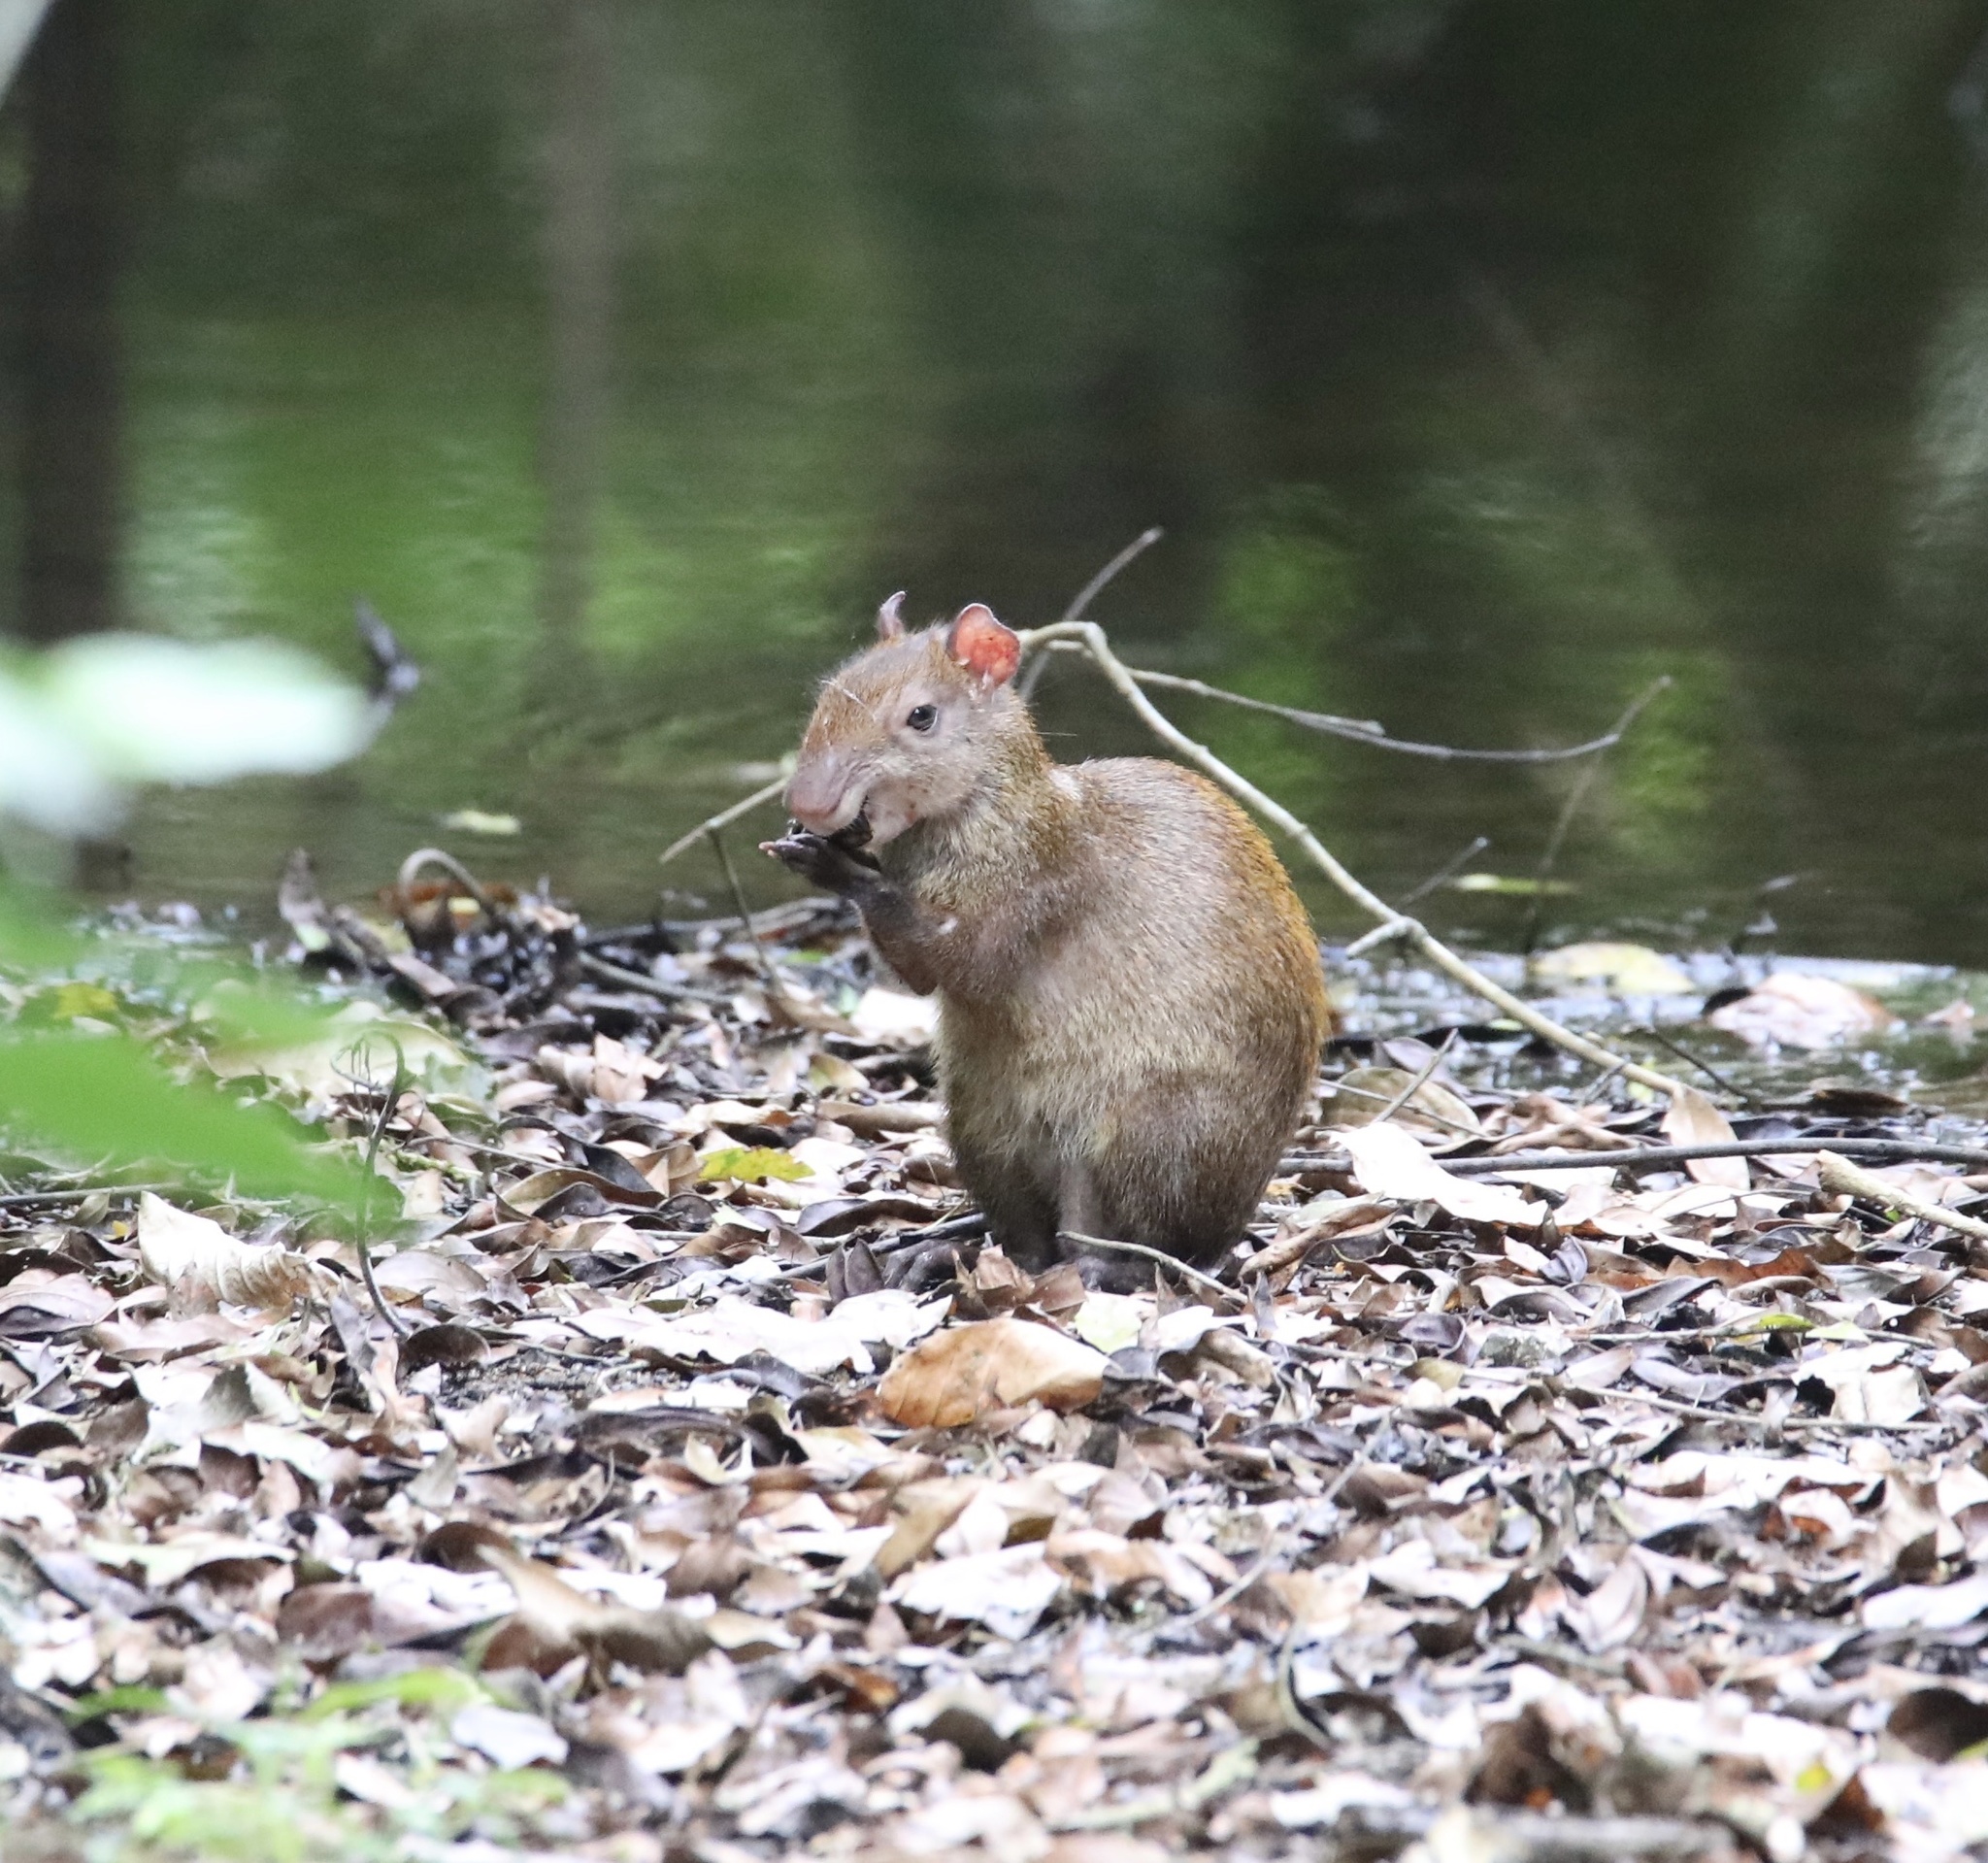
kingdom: Animalia
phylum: Chordata
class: Mammalia
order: Rodentia
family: Dasyproctidae
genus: Dasyprocta
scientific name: Dasyprocta punctata
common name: Central american agouti
